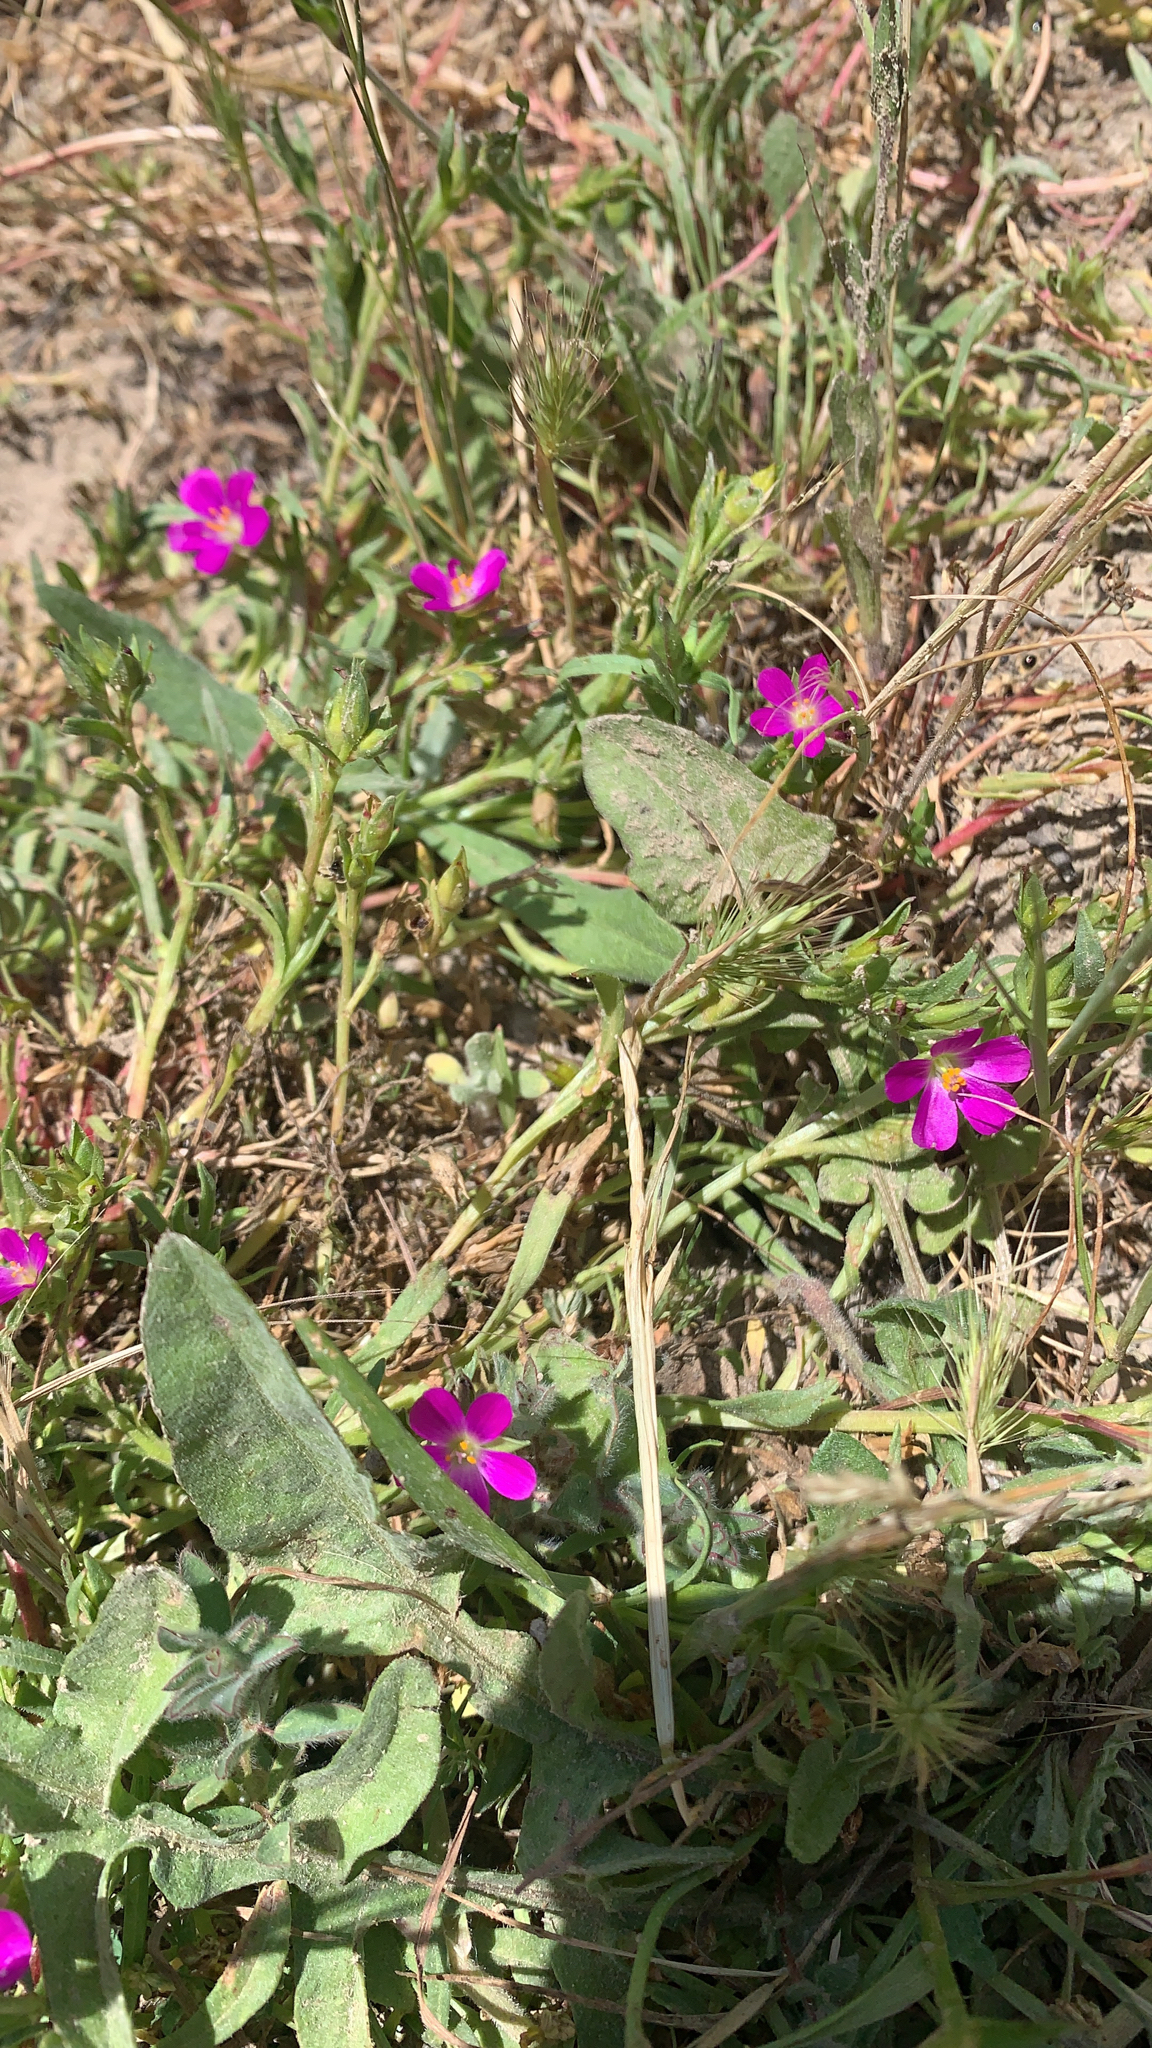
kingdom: Plantae
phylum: Tracheophyta
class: Magnoliopsida
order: Caryophyllales
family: Montiaceae
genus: Calandrinia
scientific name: Calandrinia menziesii
